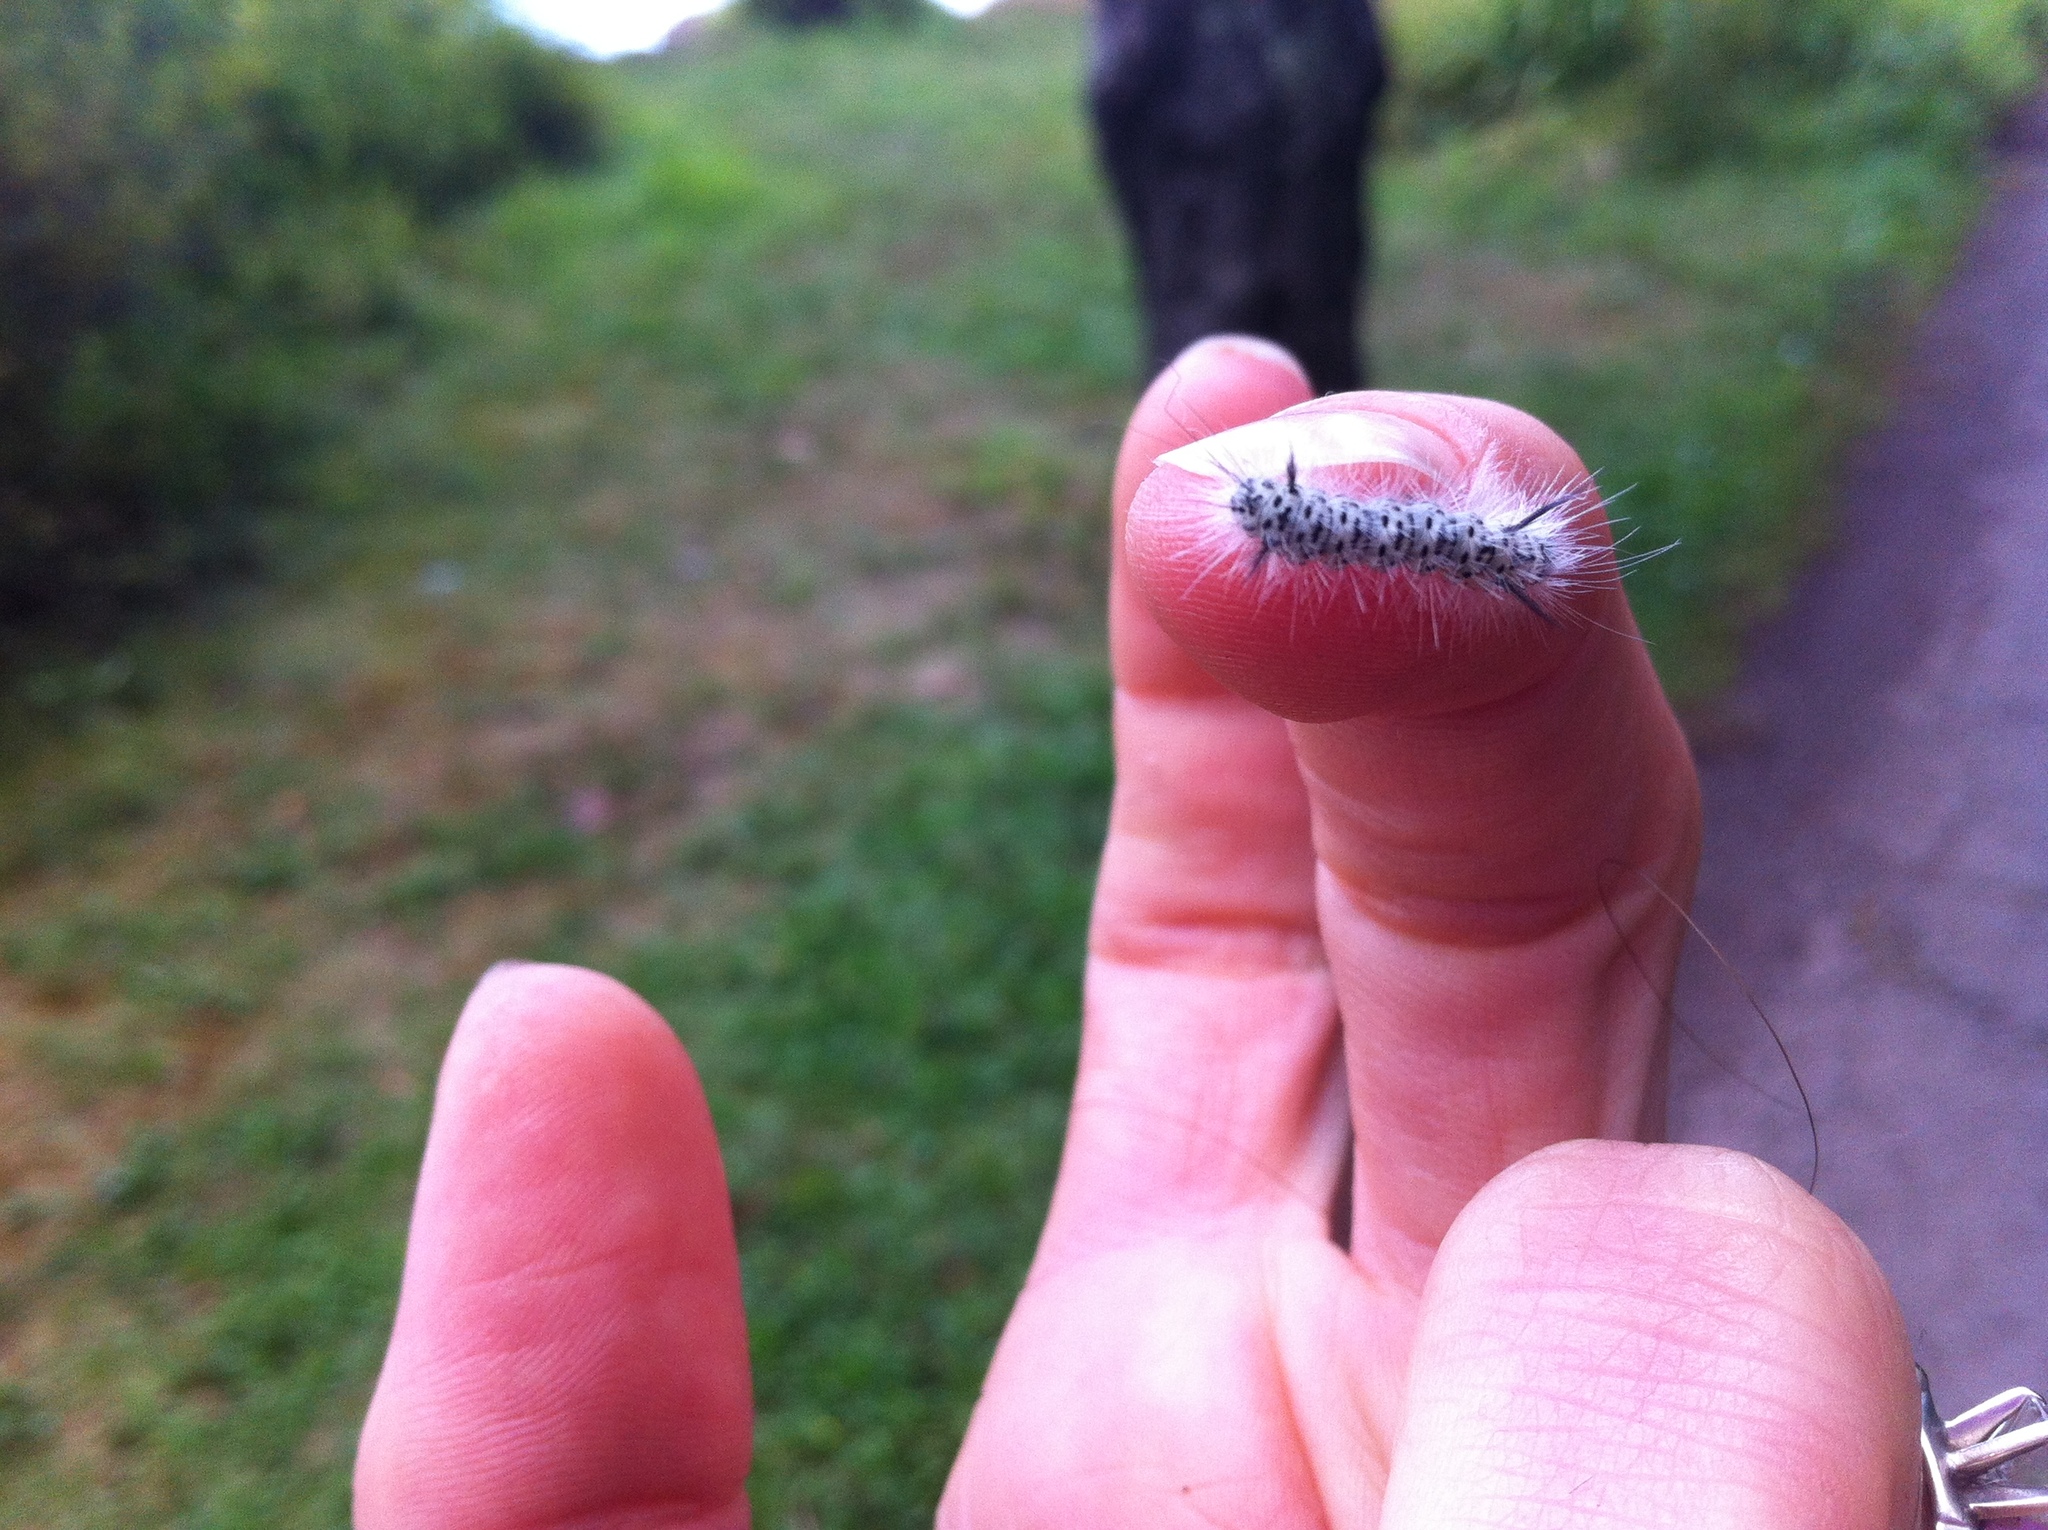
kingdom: Animalia
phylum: Arthropoda
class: Insecta
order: Lepidoptera
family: Erebidae
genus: Lophocampa
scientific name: Lophocampa caryae
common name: Hickory tussock moth
